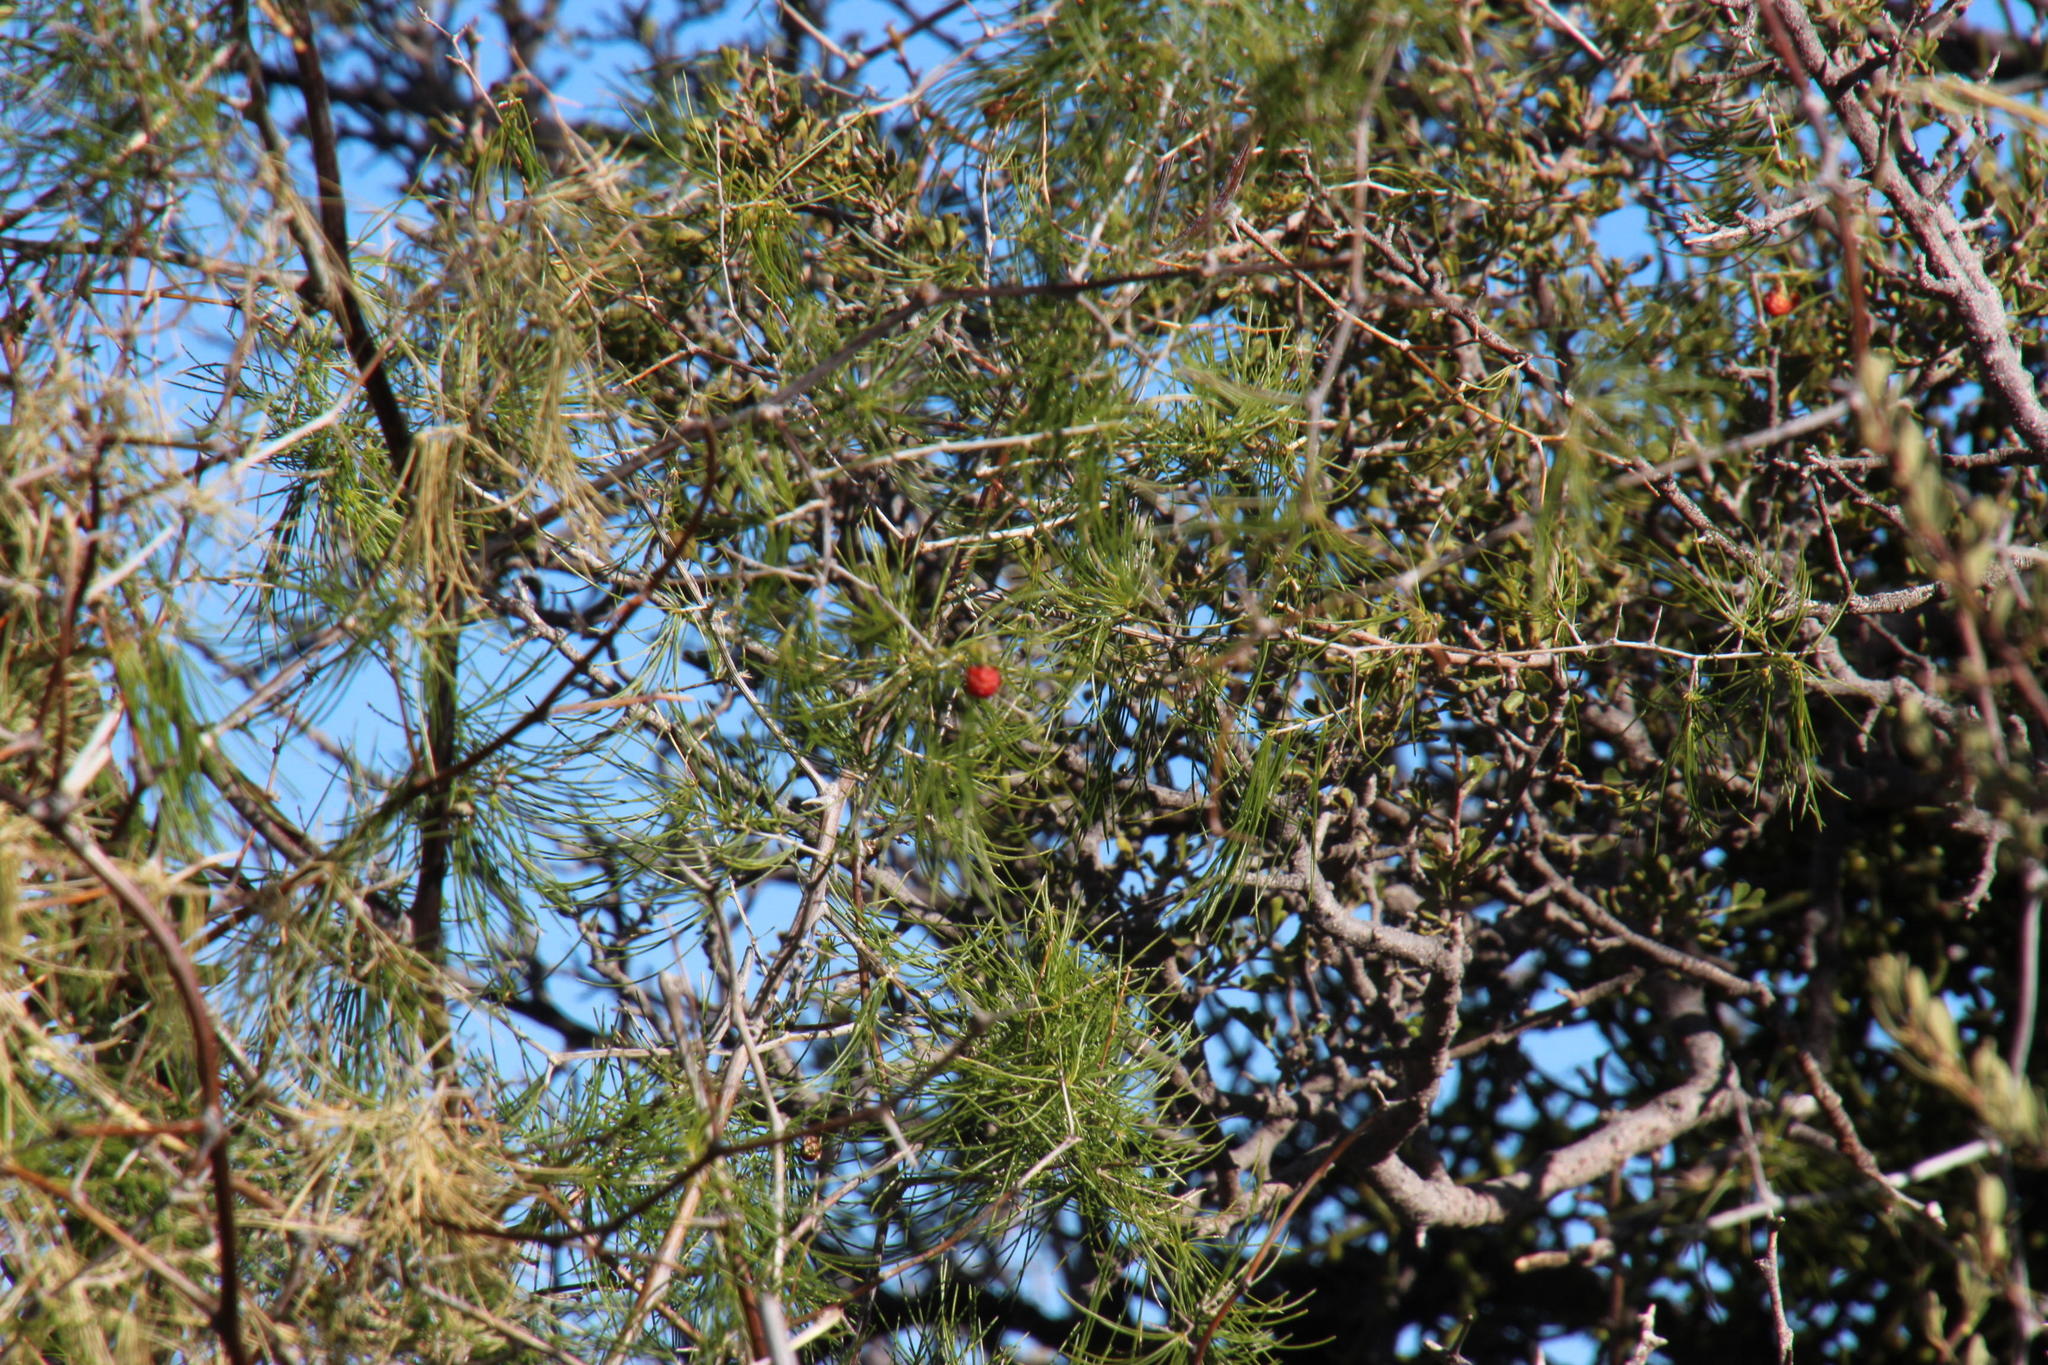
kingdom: Plantae
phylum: Tracheophyta
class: Liliopsida
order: Asparagales
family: Asparagaceae
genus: Asparagus
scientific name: Asparagus retrofractus
